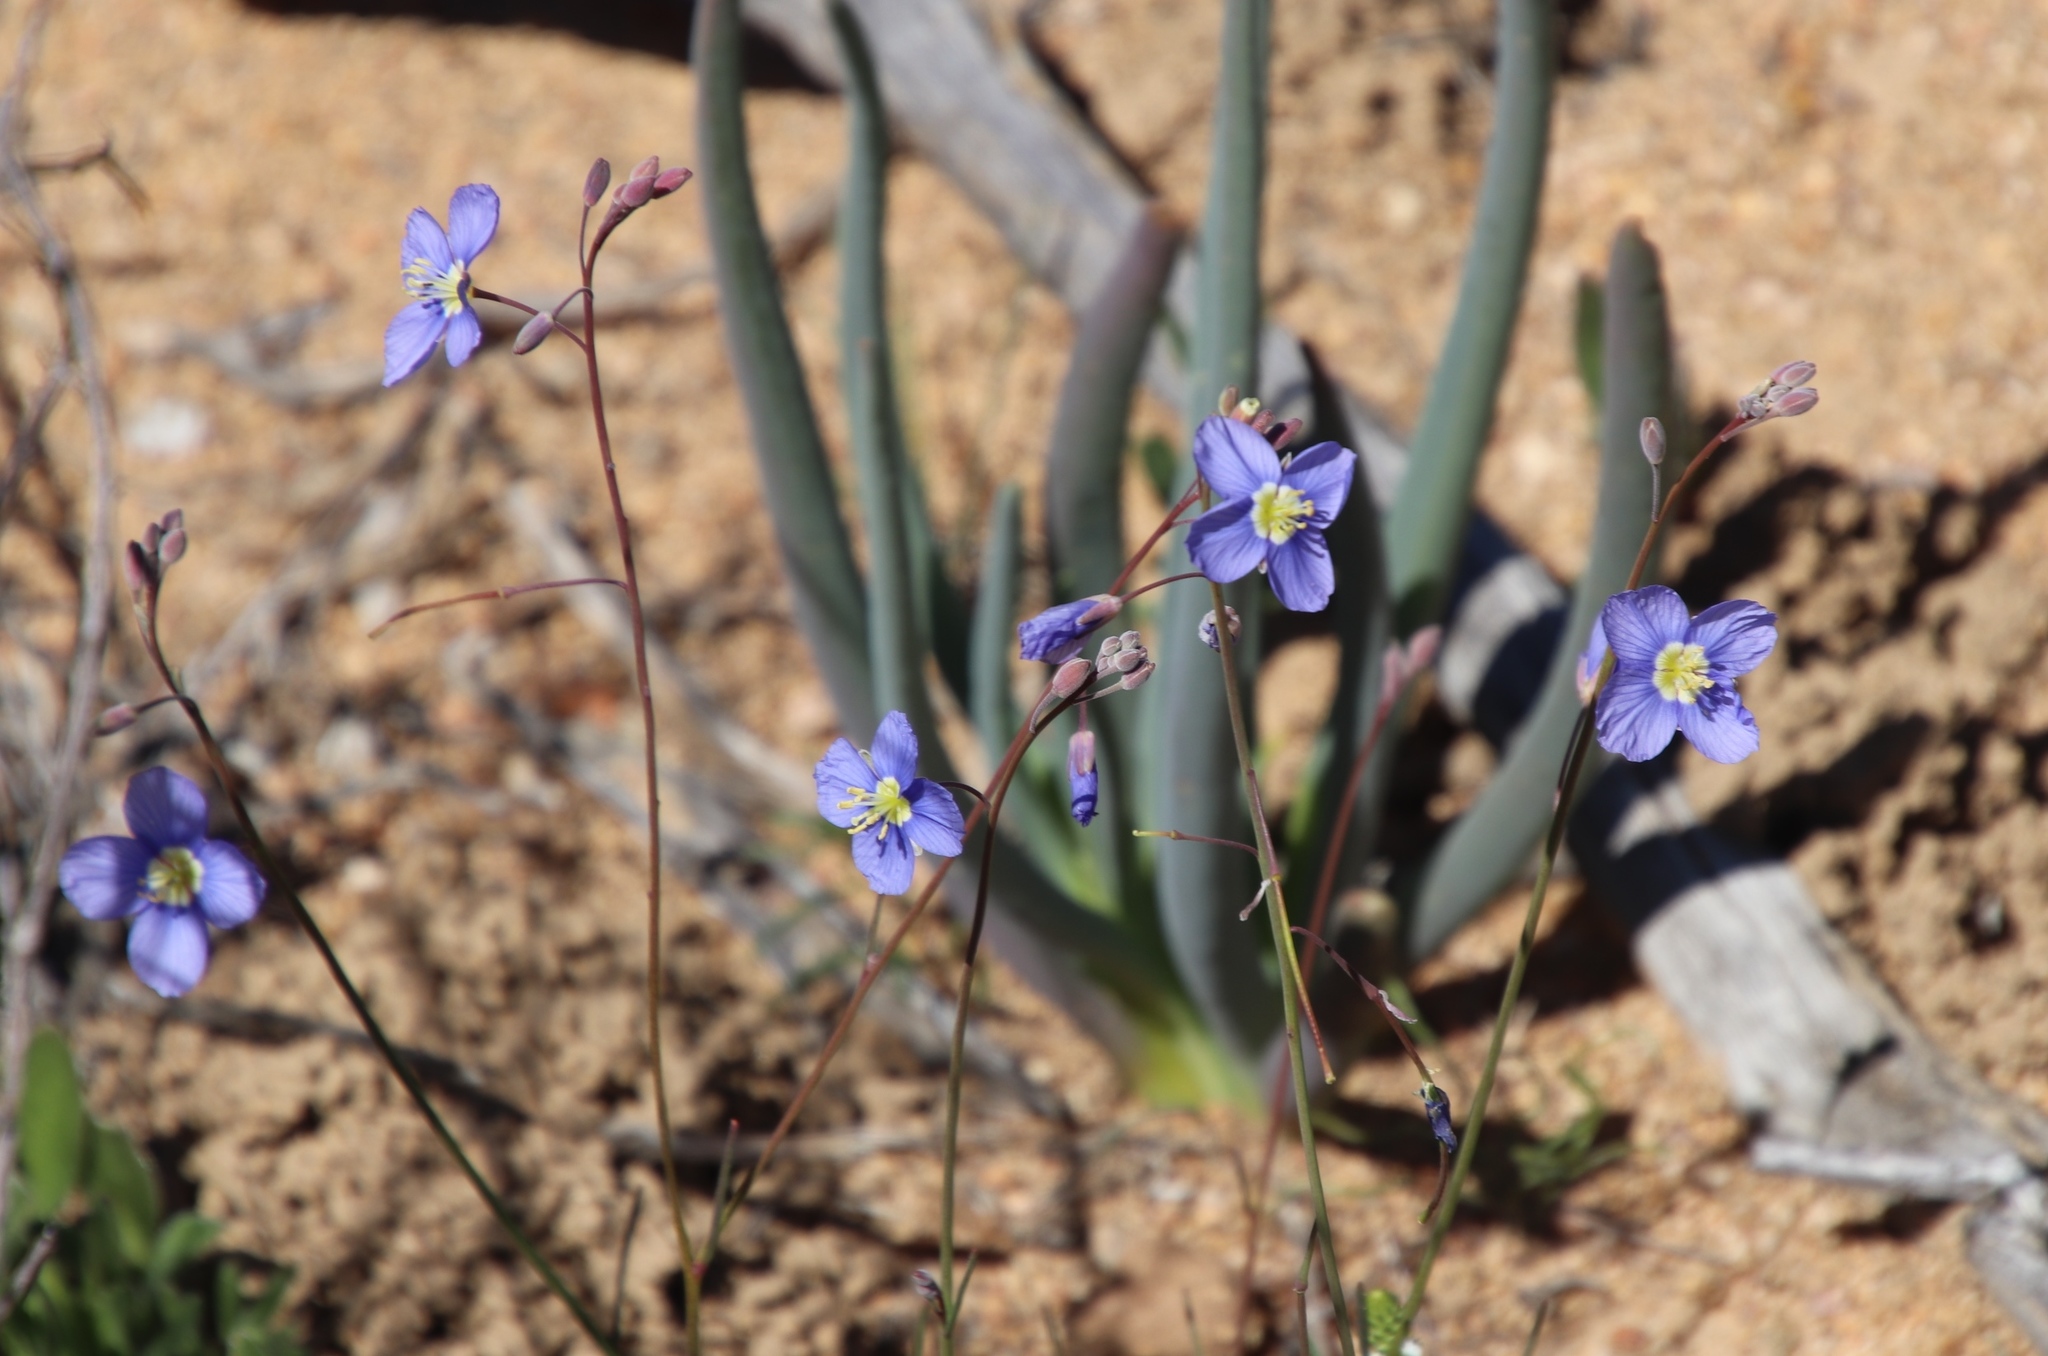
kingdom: Plantae
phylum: Tracheophyta
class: Magnoliopsida
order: Brassicales
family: Brassicaceae
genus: Heliophila
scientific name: Heliophila leptophylla
